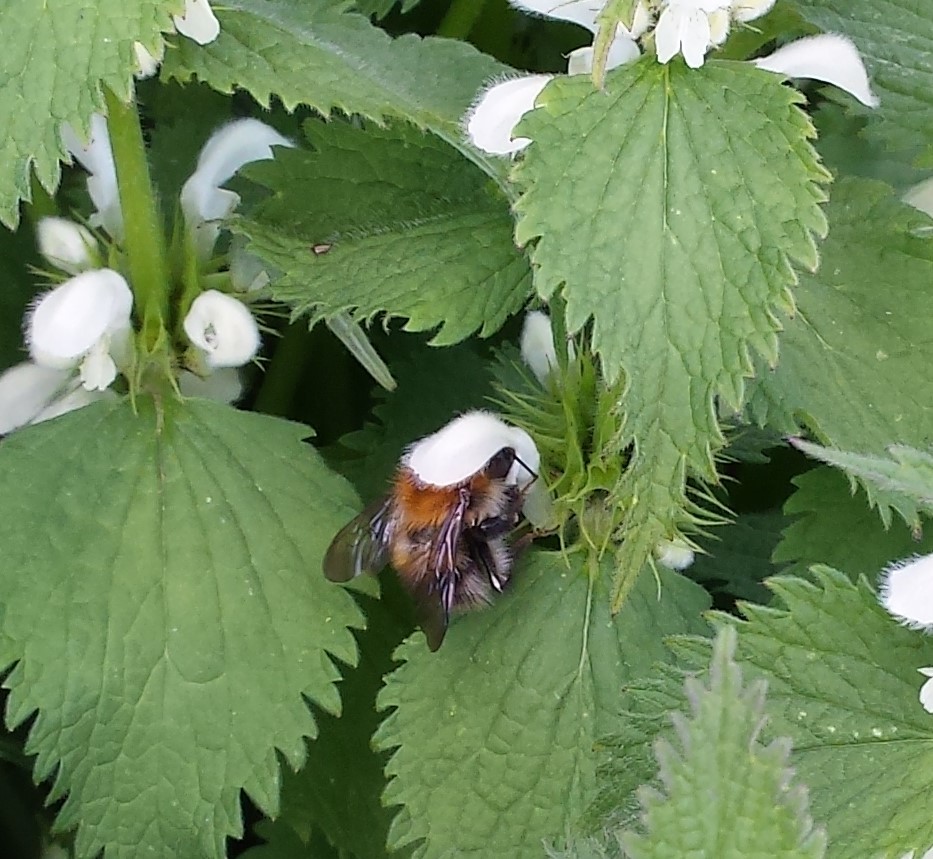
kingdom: Animalia
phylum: Arthropoda
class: Insecta
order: Hymenoptera
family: Apidae
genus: Bombus
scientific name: Bombus pascuorum
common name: Common carder bee
